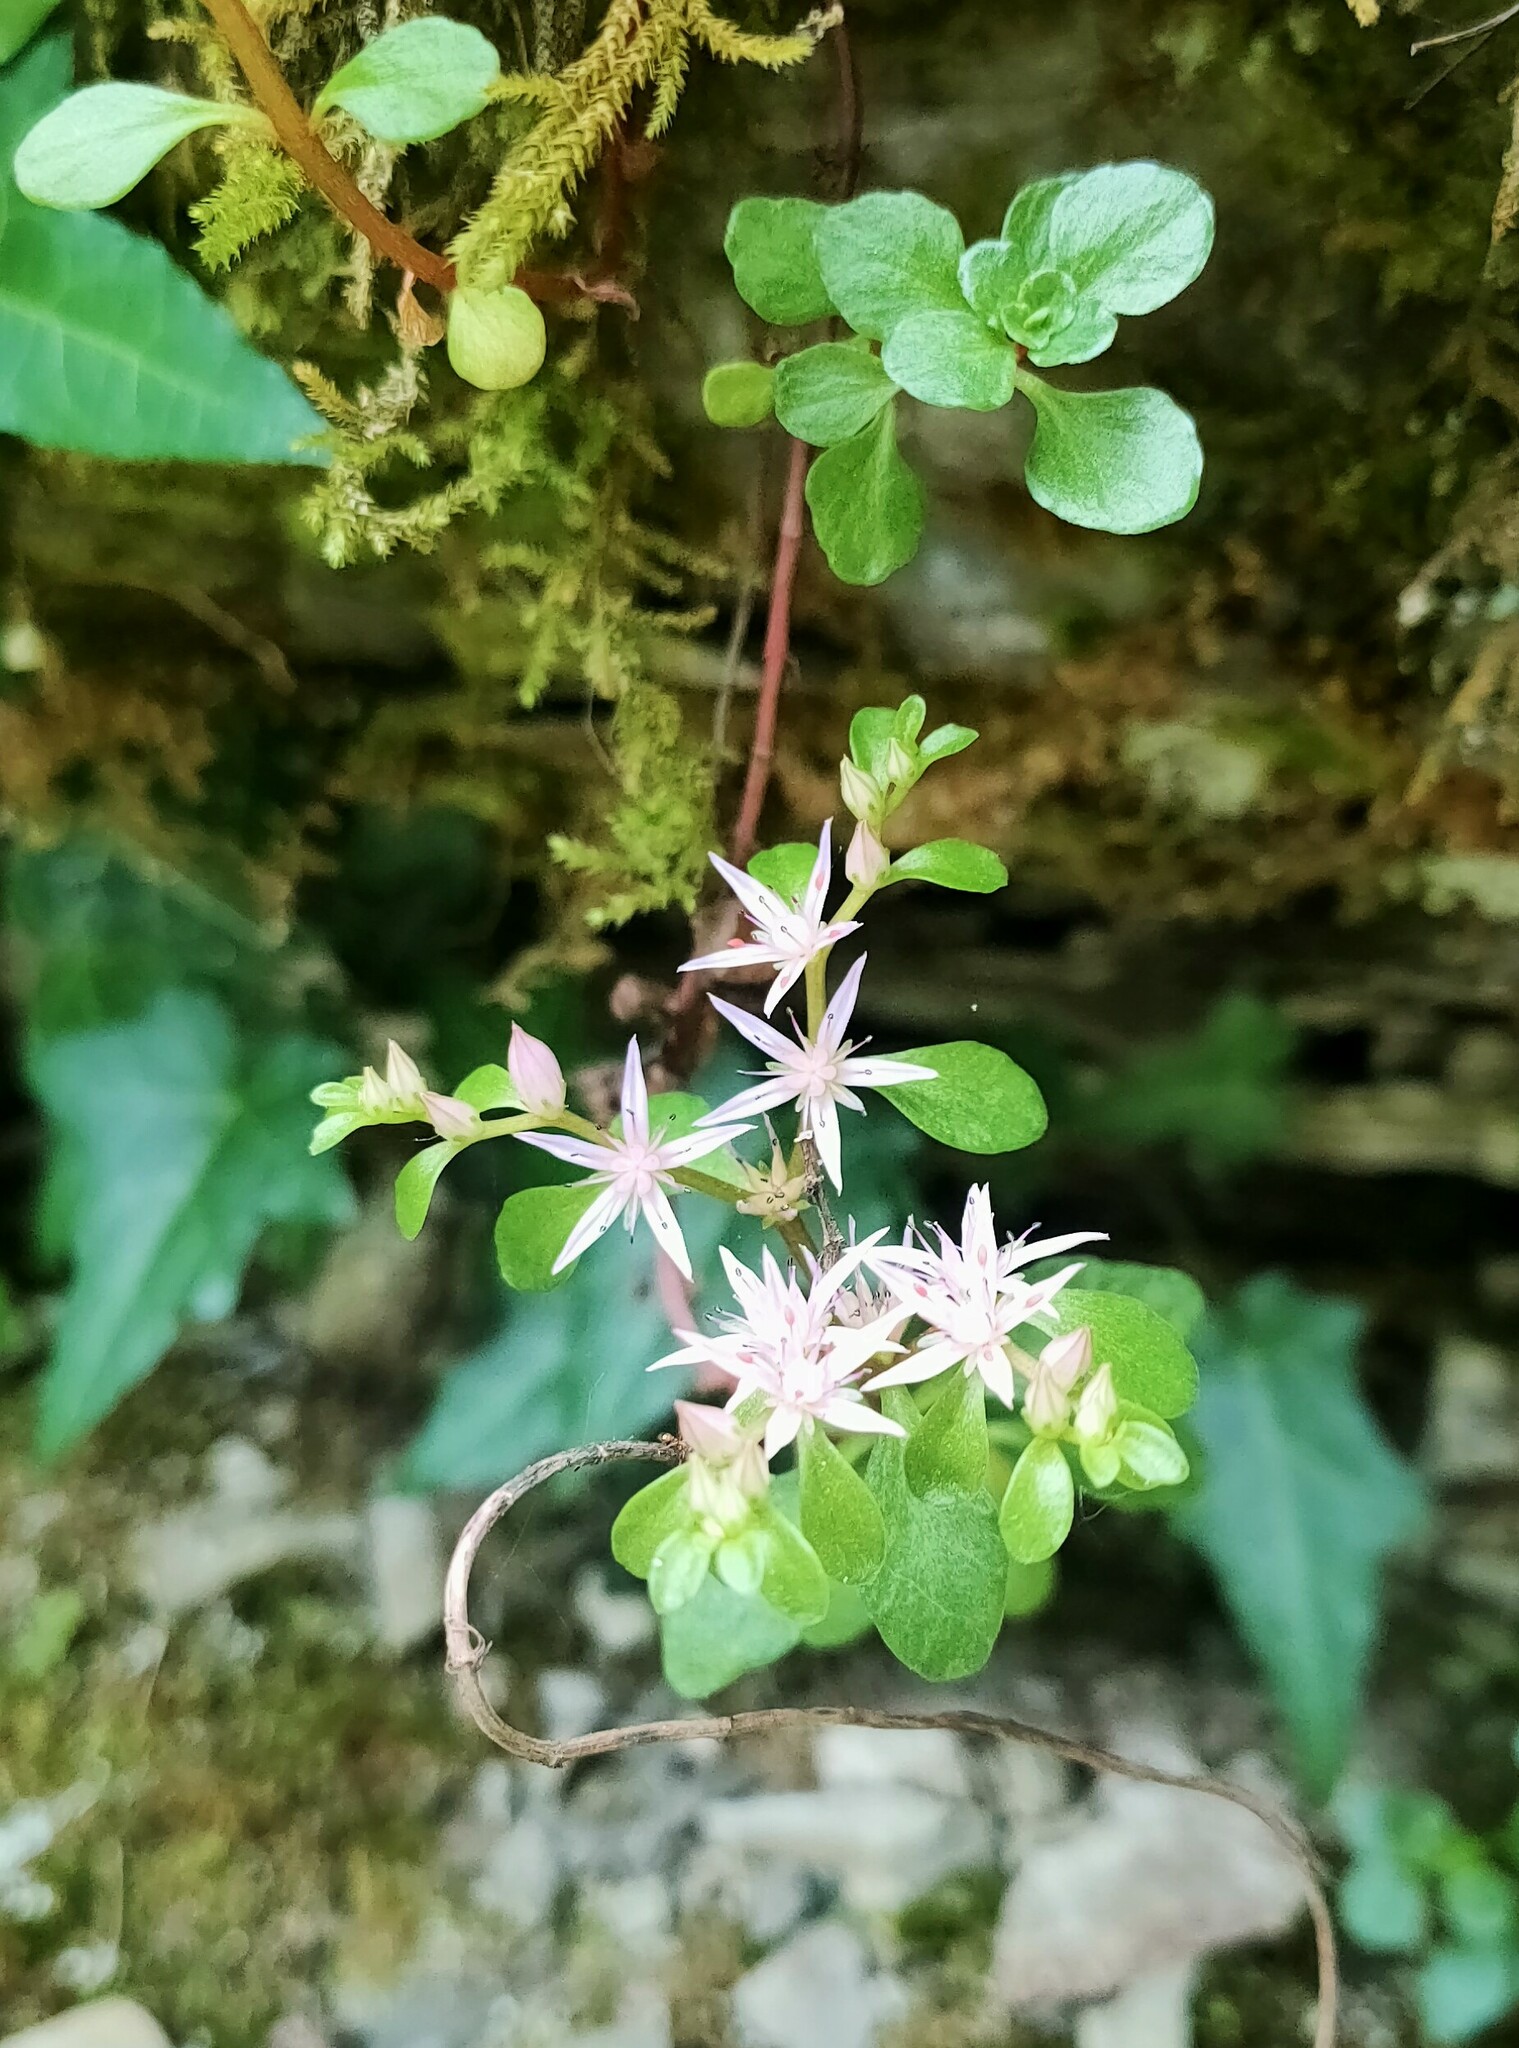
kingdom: Plantae
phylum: Tracheophyta
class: Magnoliopsida
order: Saxifragales
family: Crassulaceae
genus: Phedimus
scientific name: Phedimus stolonifer
